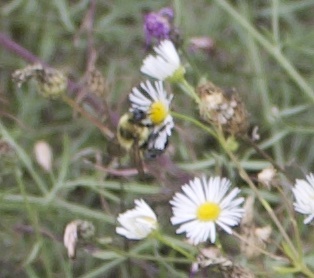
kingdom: Animalia
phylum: Arthropoda
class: Insecta
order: Hymenoptera
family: Apidae
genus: Bombus
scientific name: Bombus rufocinctus
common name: Red-belted bumble bee
